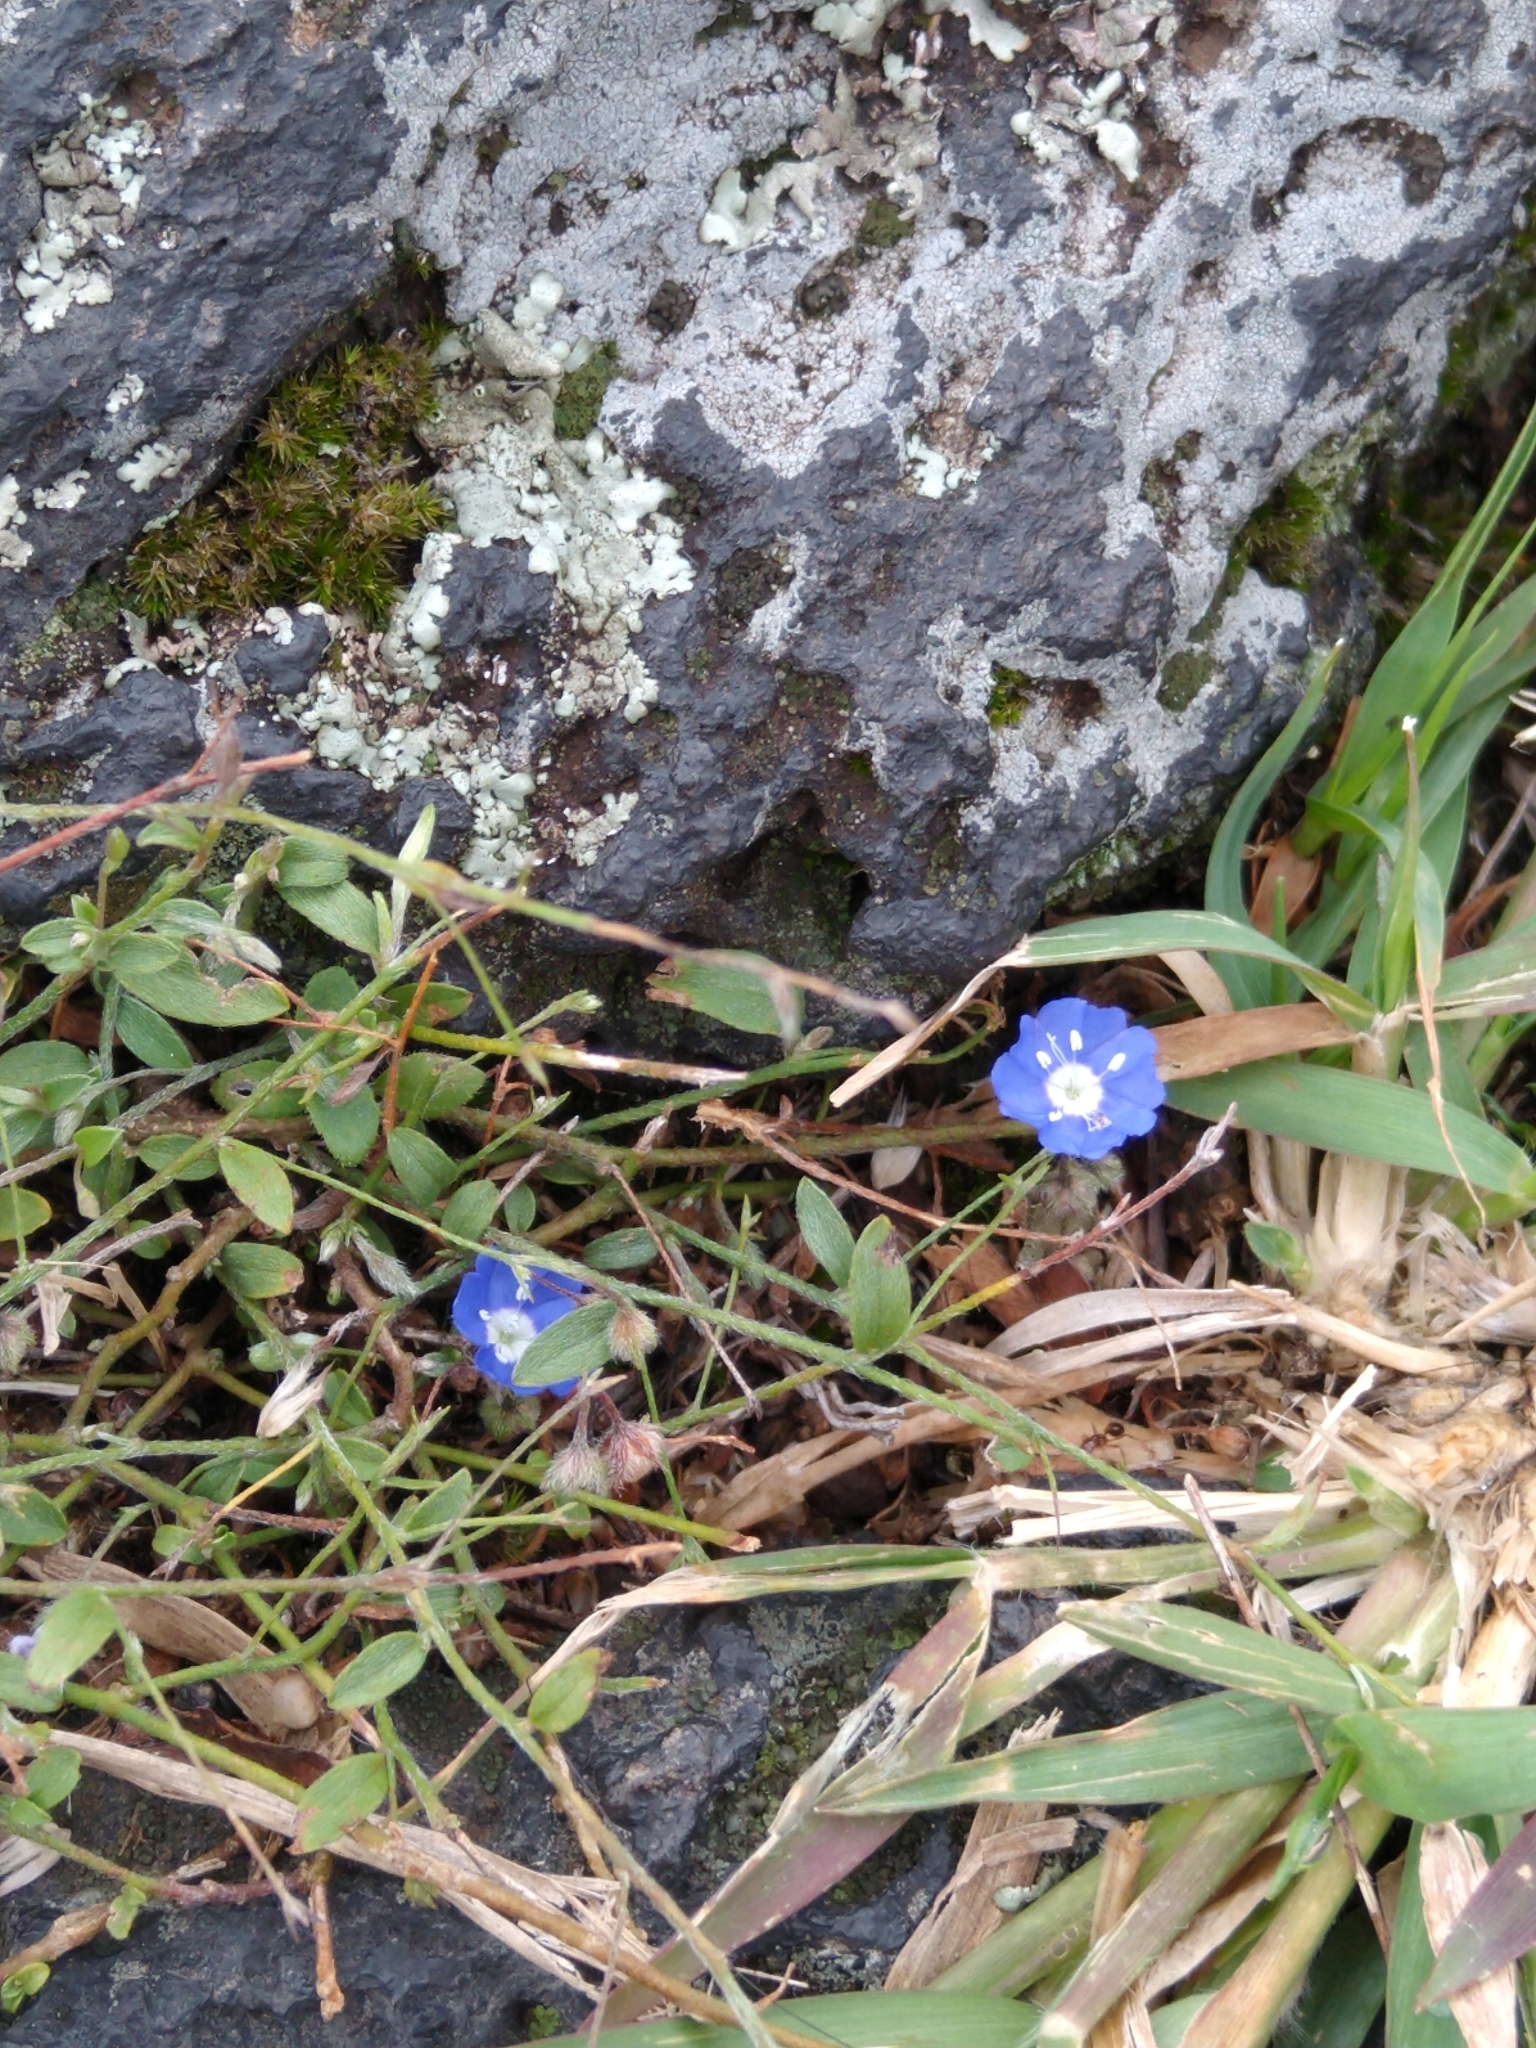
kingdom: Plantae
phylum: Tracheophyta
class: Magnoliopsida
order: Solanales
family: Convolvulaceae
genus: Evolvulus
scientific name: Evolvulus alsinoides
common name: Slender dwarf morning-glory
